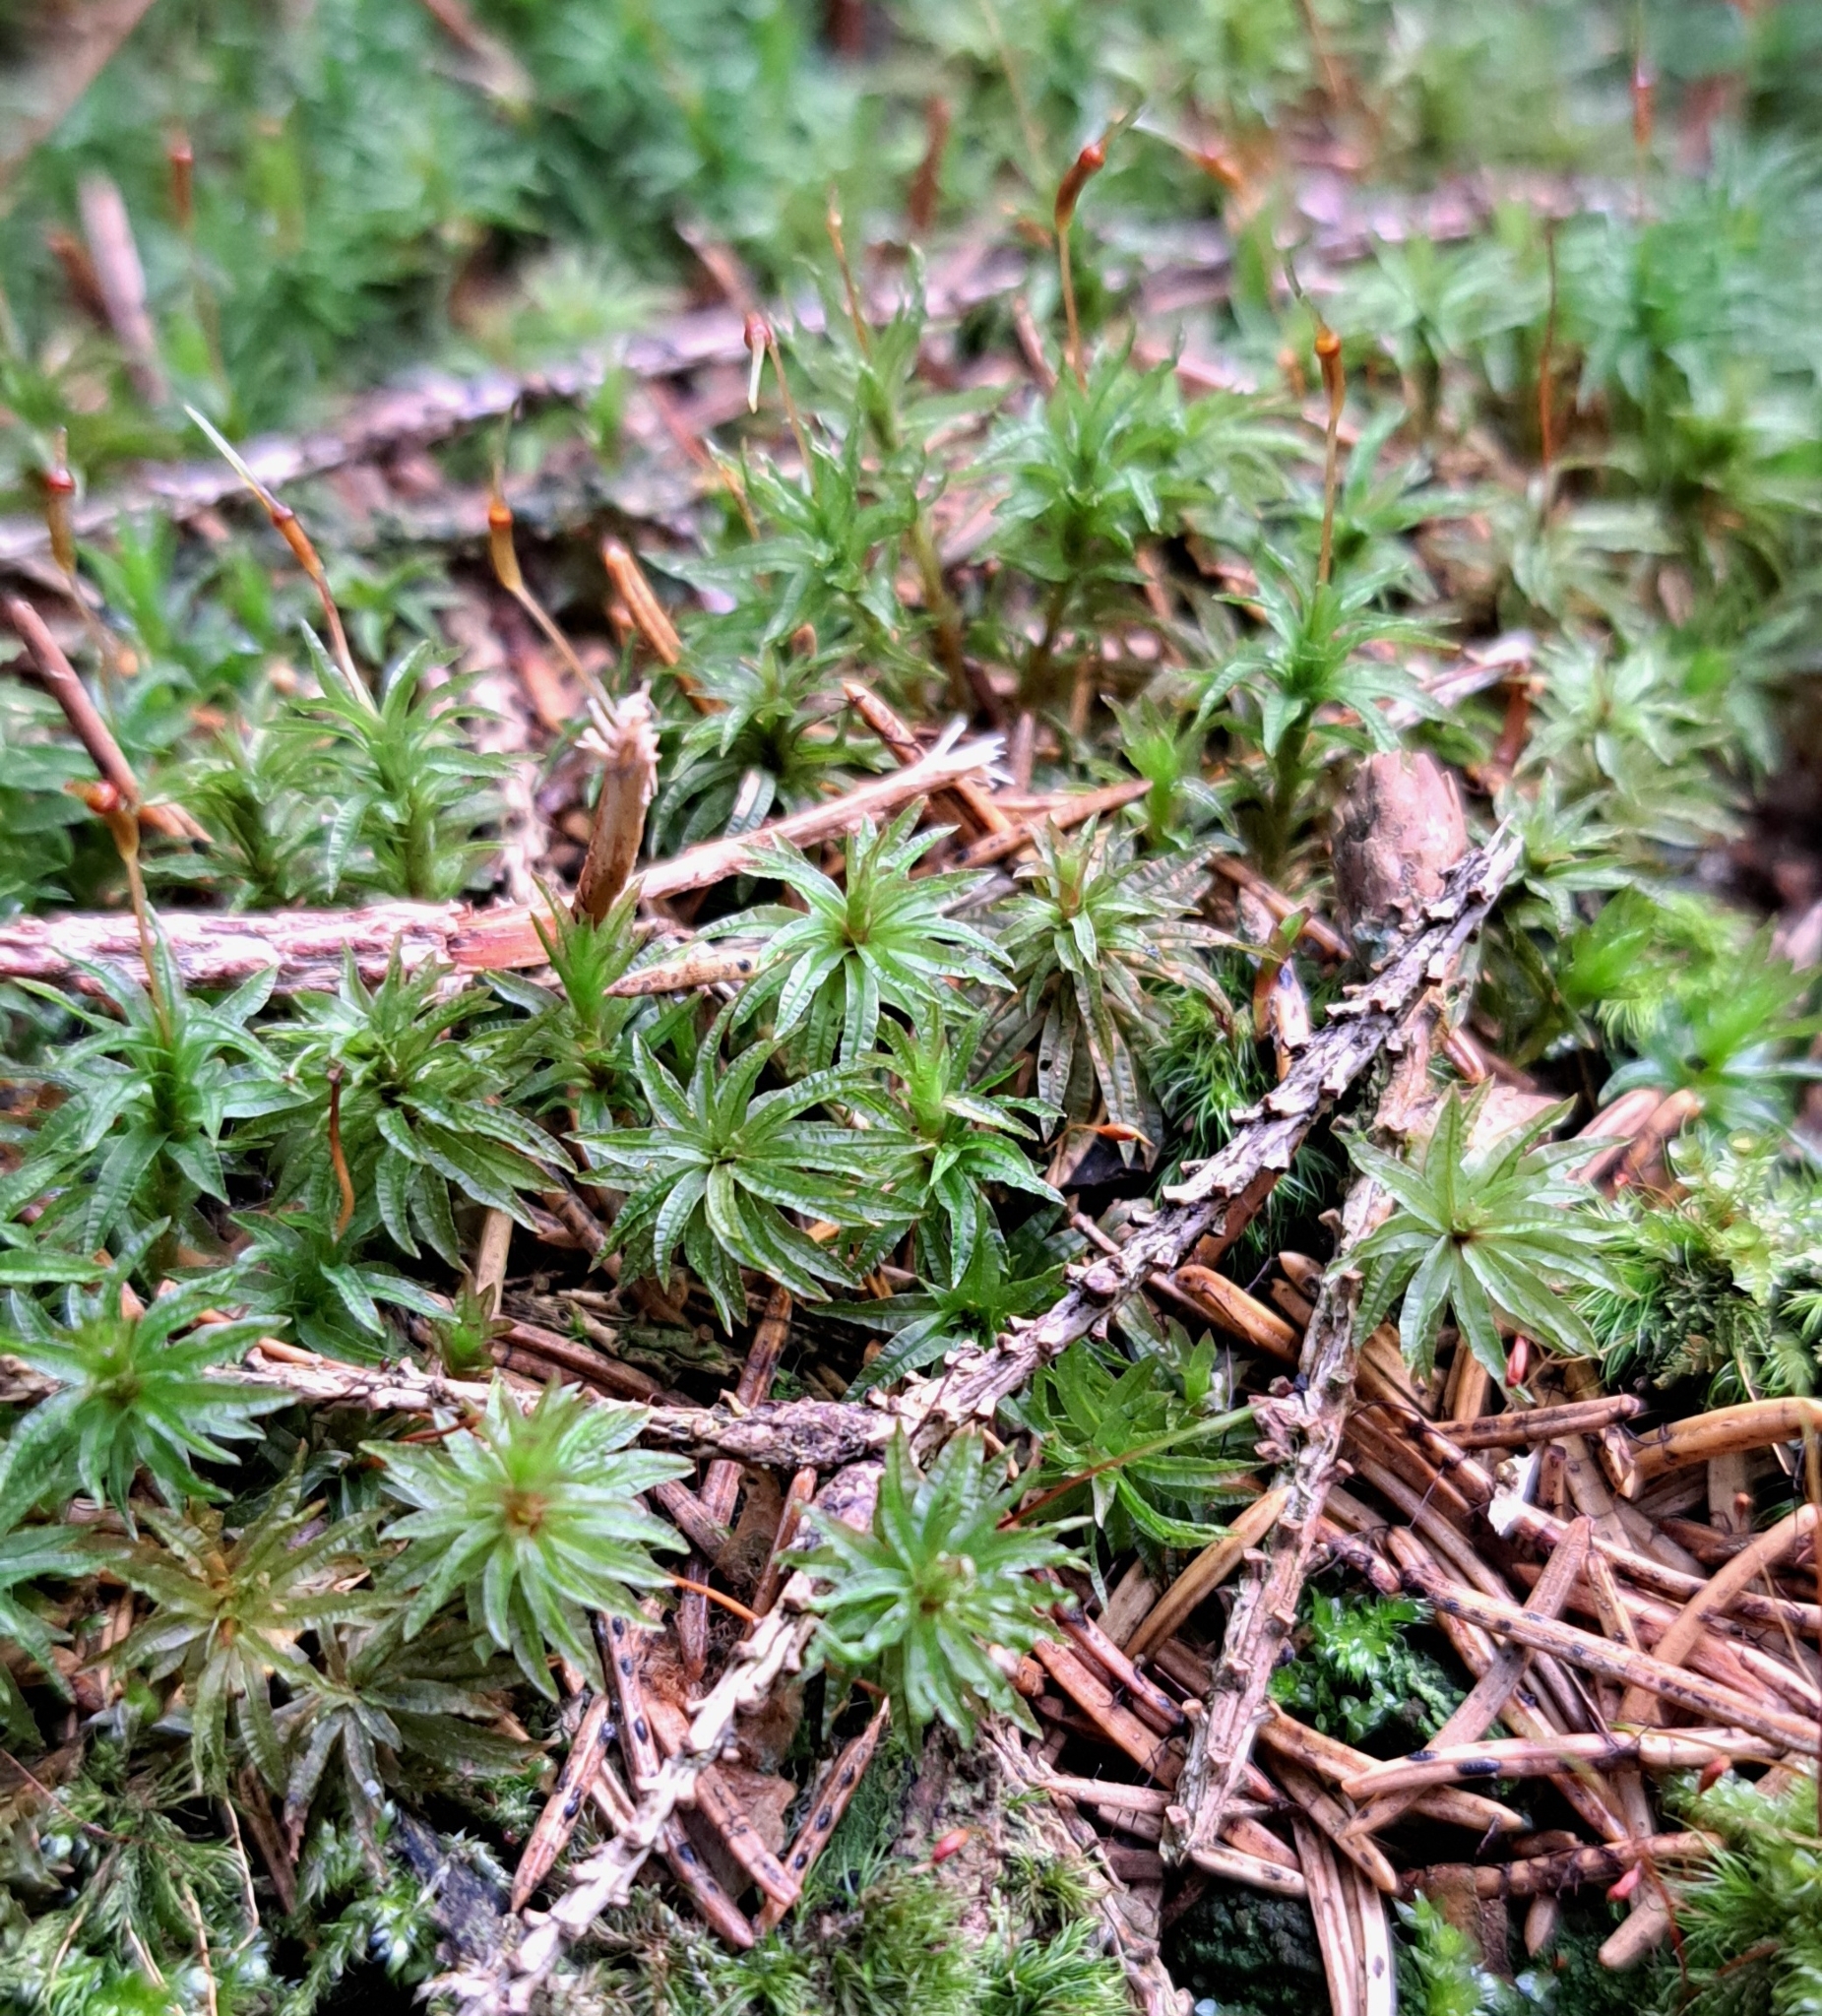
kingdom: Plantae
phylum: Bryophyta
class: Polytrichopsida
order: Polytrichales
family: Polytrichaceae
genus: Atrichum
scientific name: Atrichum undulatum
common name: Common smoothcap
